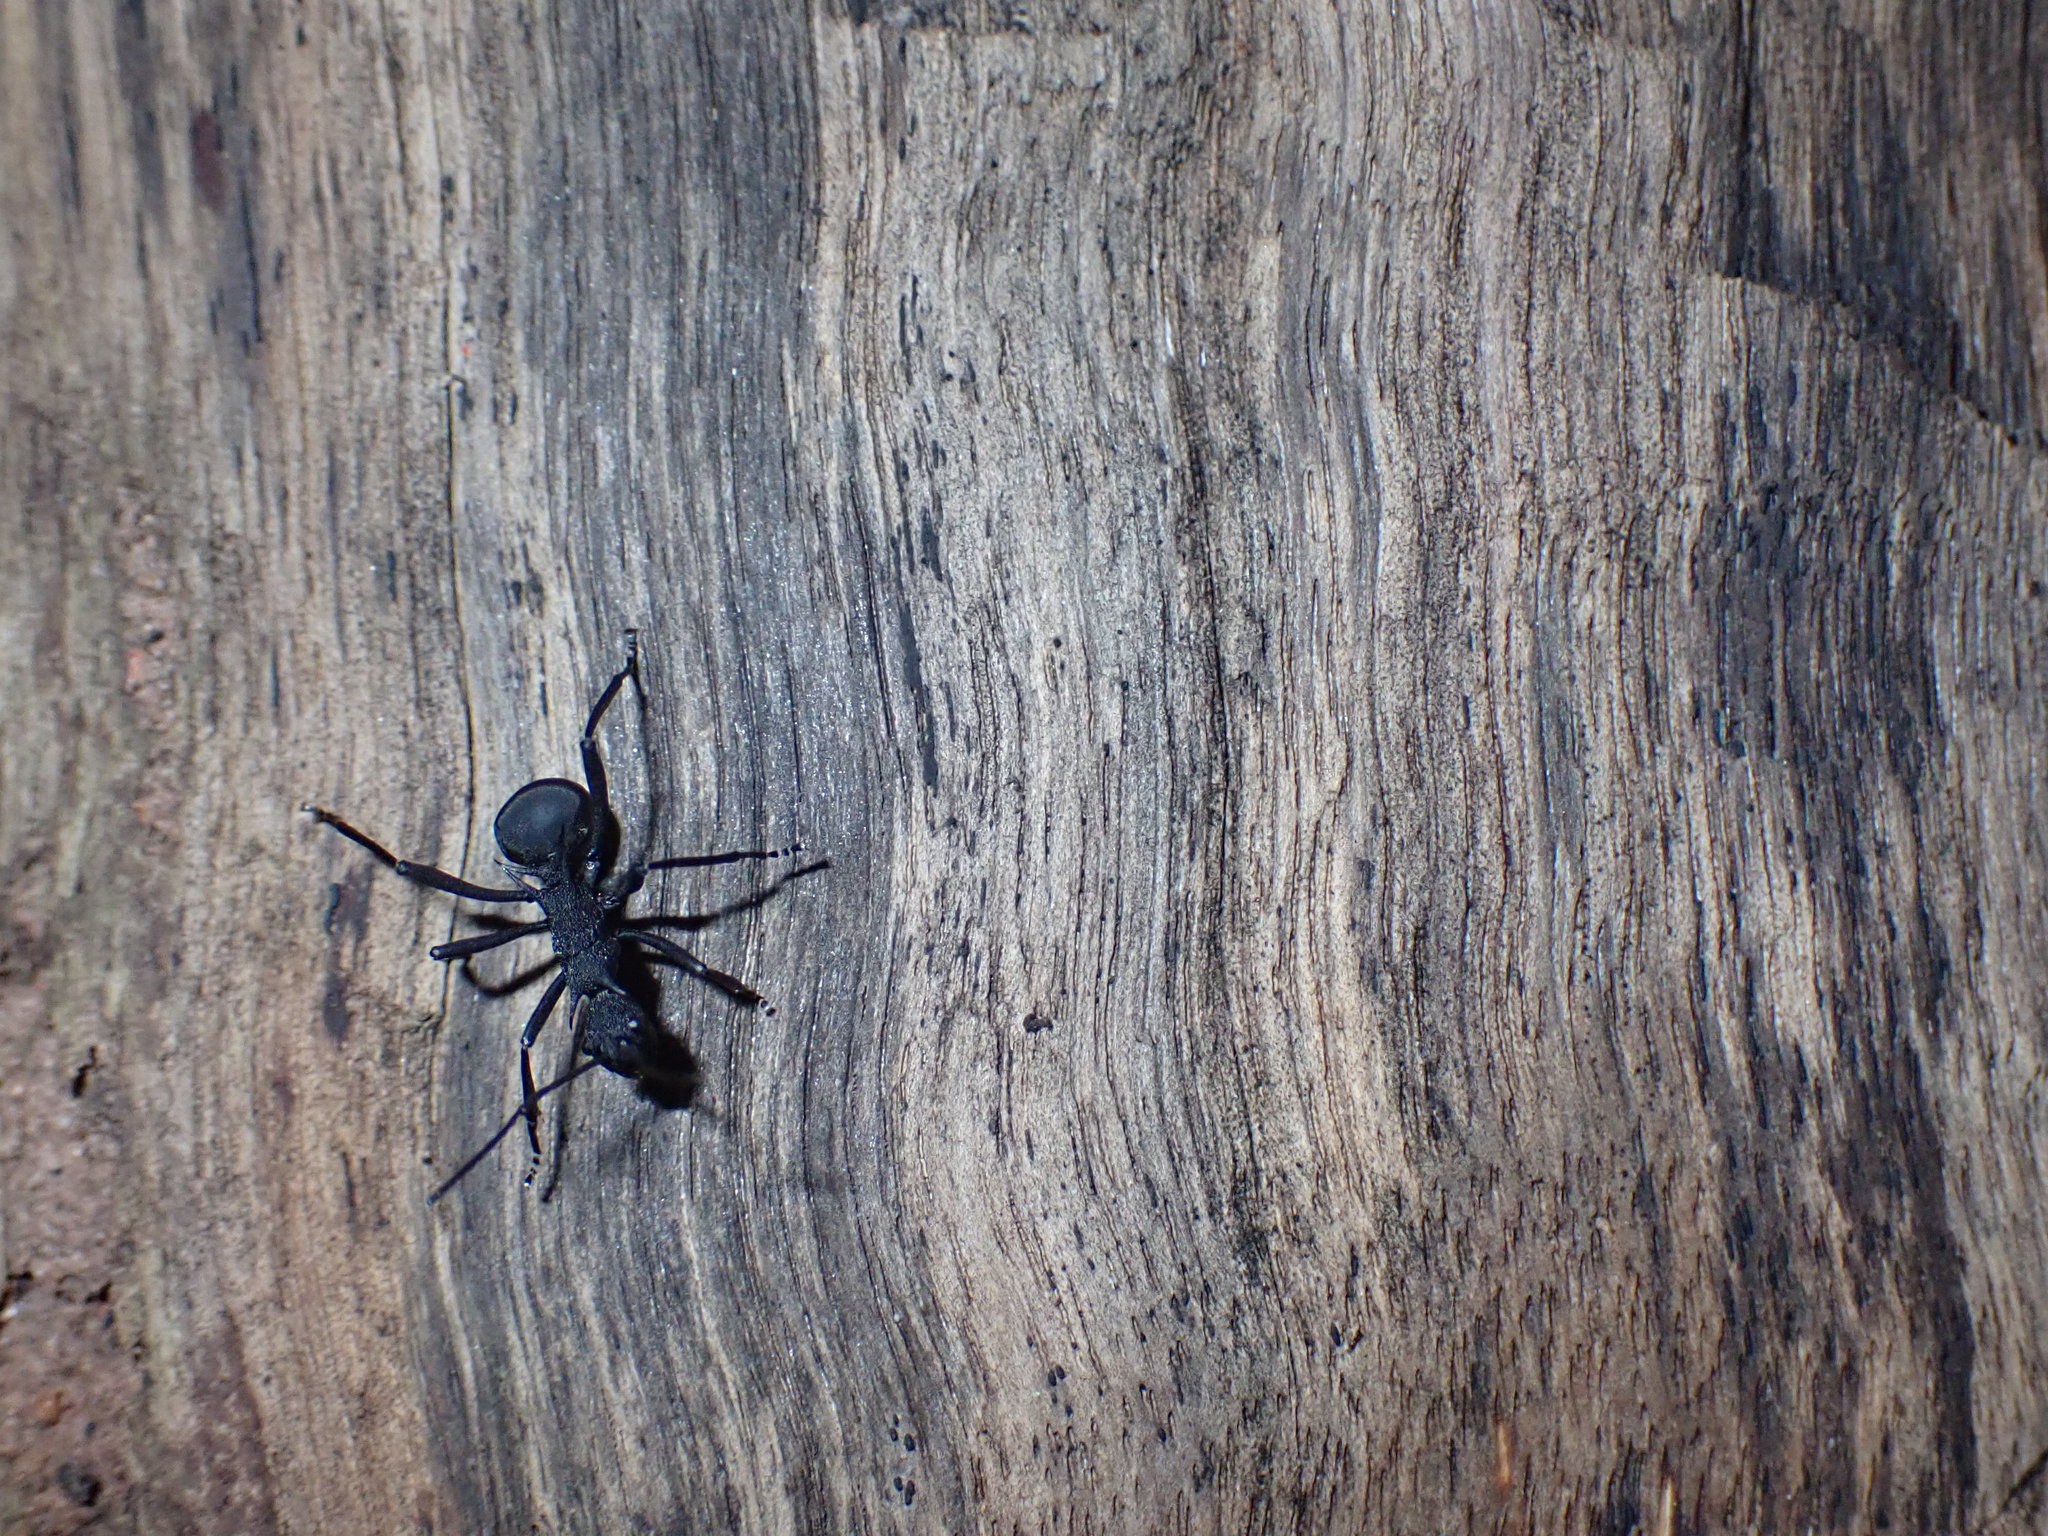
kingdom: Animalia
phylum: Arthropoda
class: Insecta
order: Hymenoptera
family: Formicidae
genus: Polyrhachis
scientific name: Polyrhachis armata
